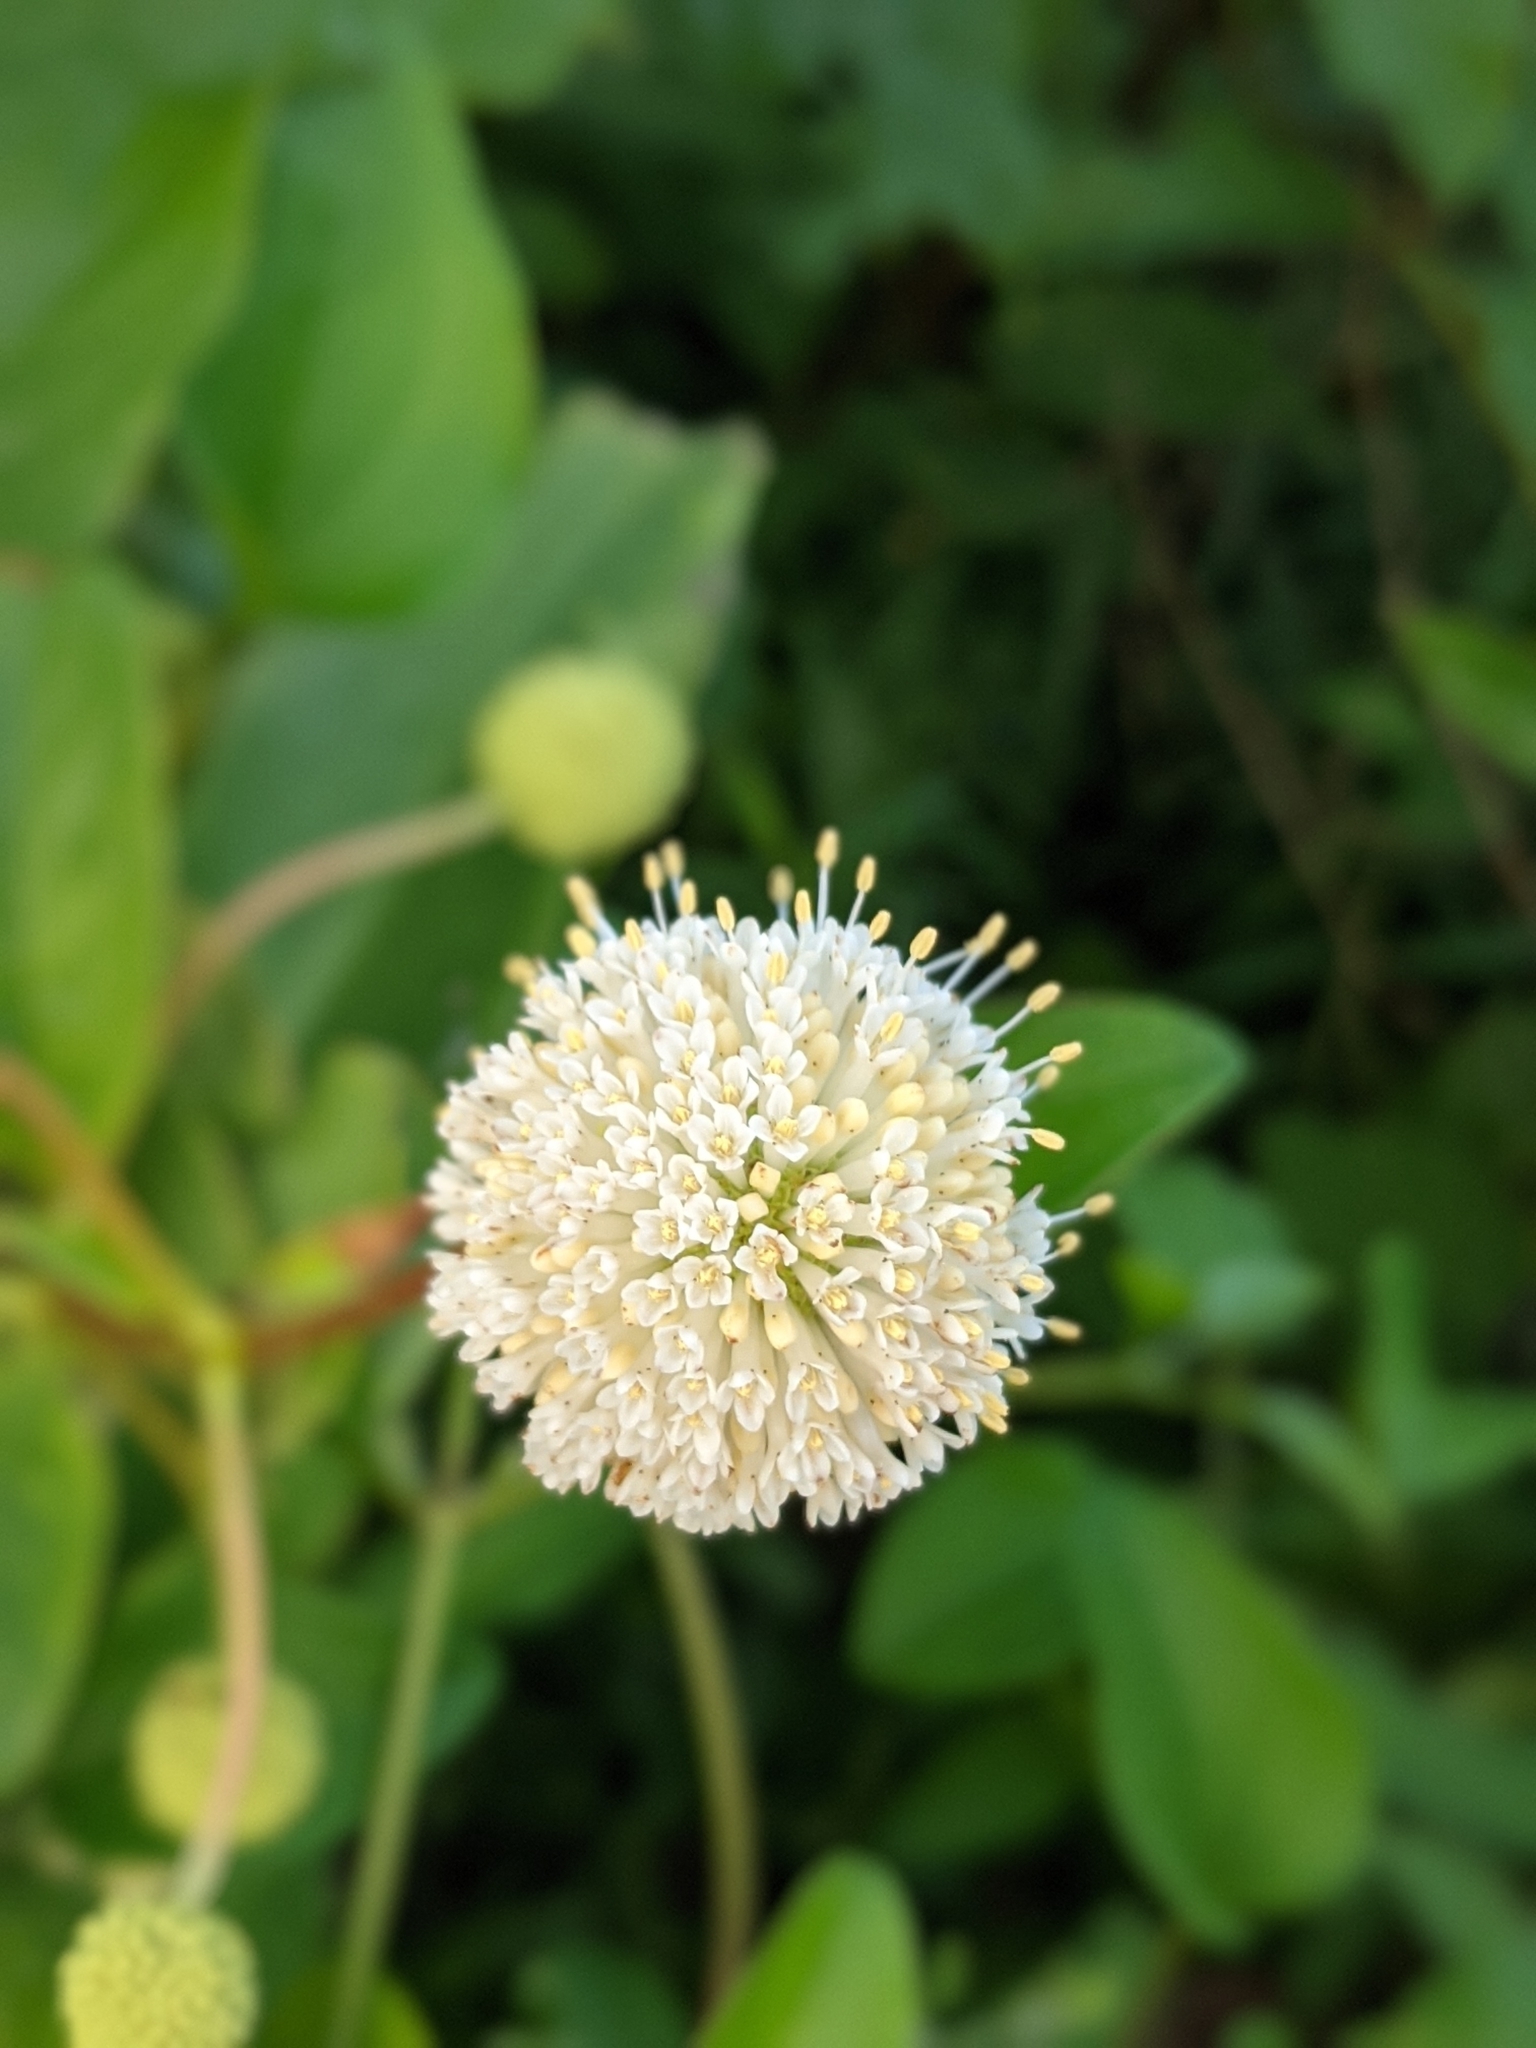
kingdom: Plantae
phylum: Tracheophyta
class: Magnoliopsida
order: Gentianales
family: Rubiaceae
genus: Cephalanthus
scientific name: Cephalanthus occidentalis
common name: Button-willow
